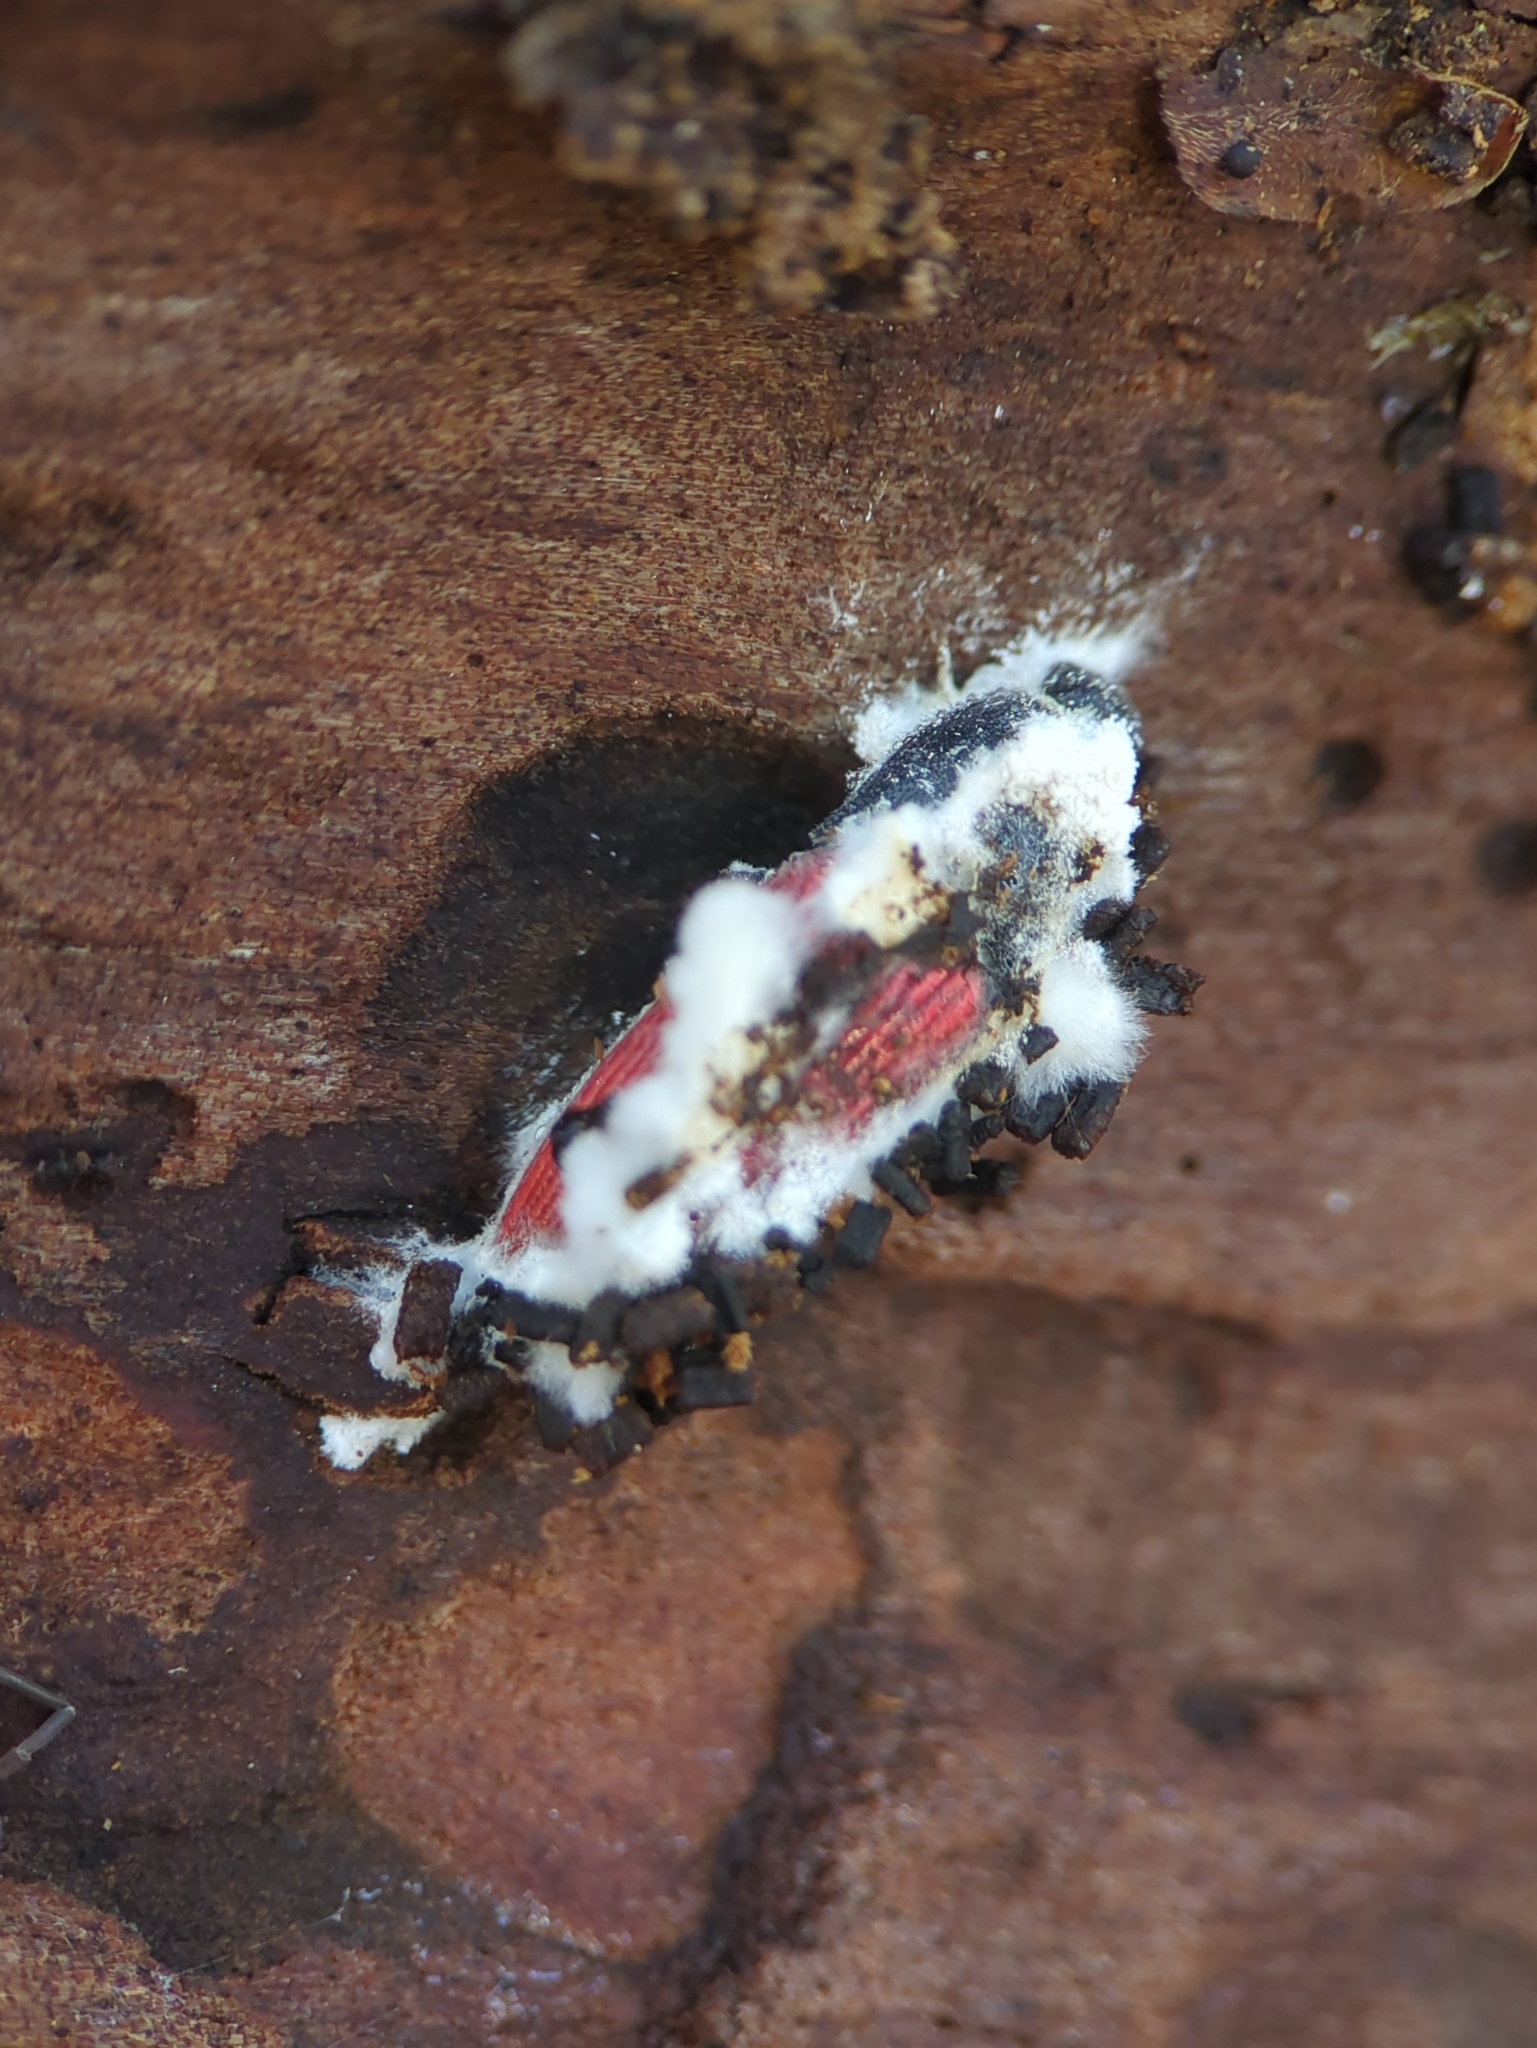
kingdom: Fungi
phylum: Ascomycota
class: Sordariomycetes
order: Hypocreales
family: Cordycipitaceae
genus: Beauveria
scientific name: Beauveria bassiana
